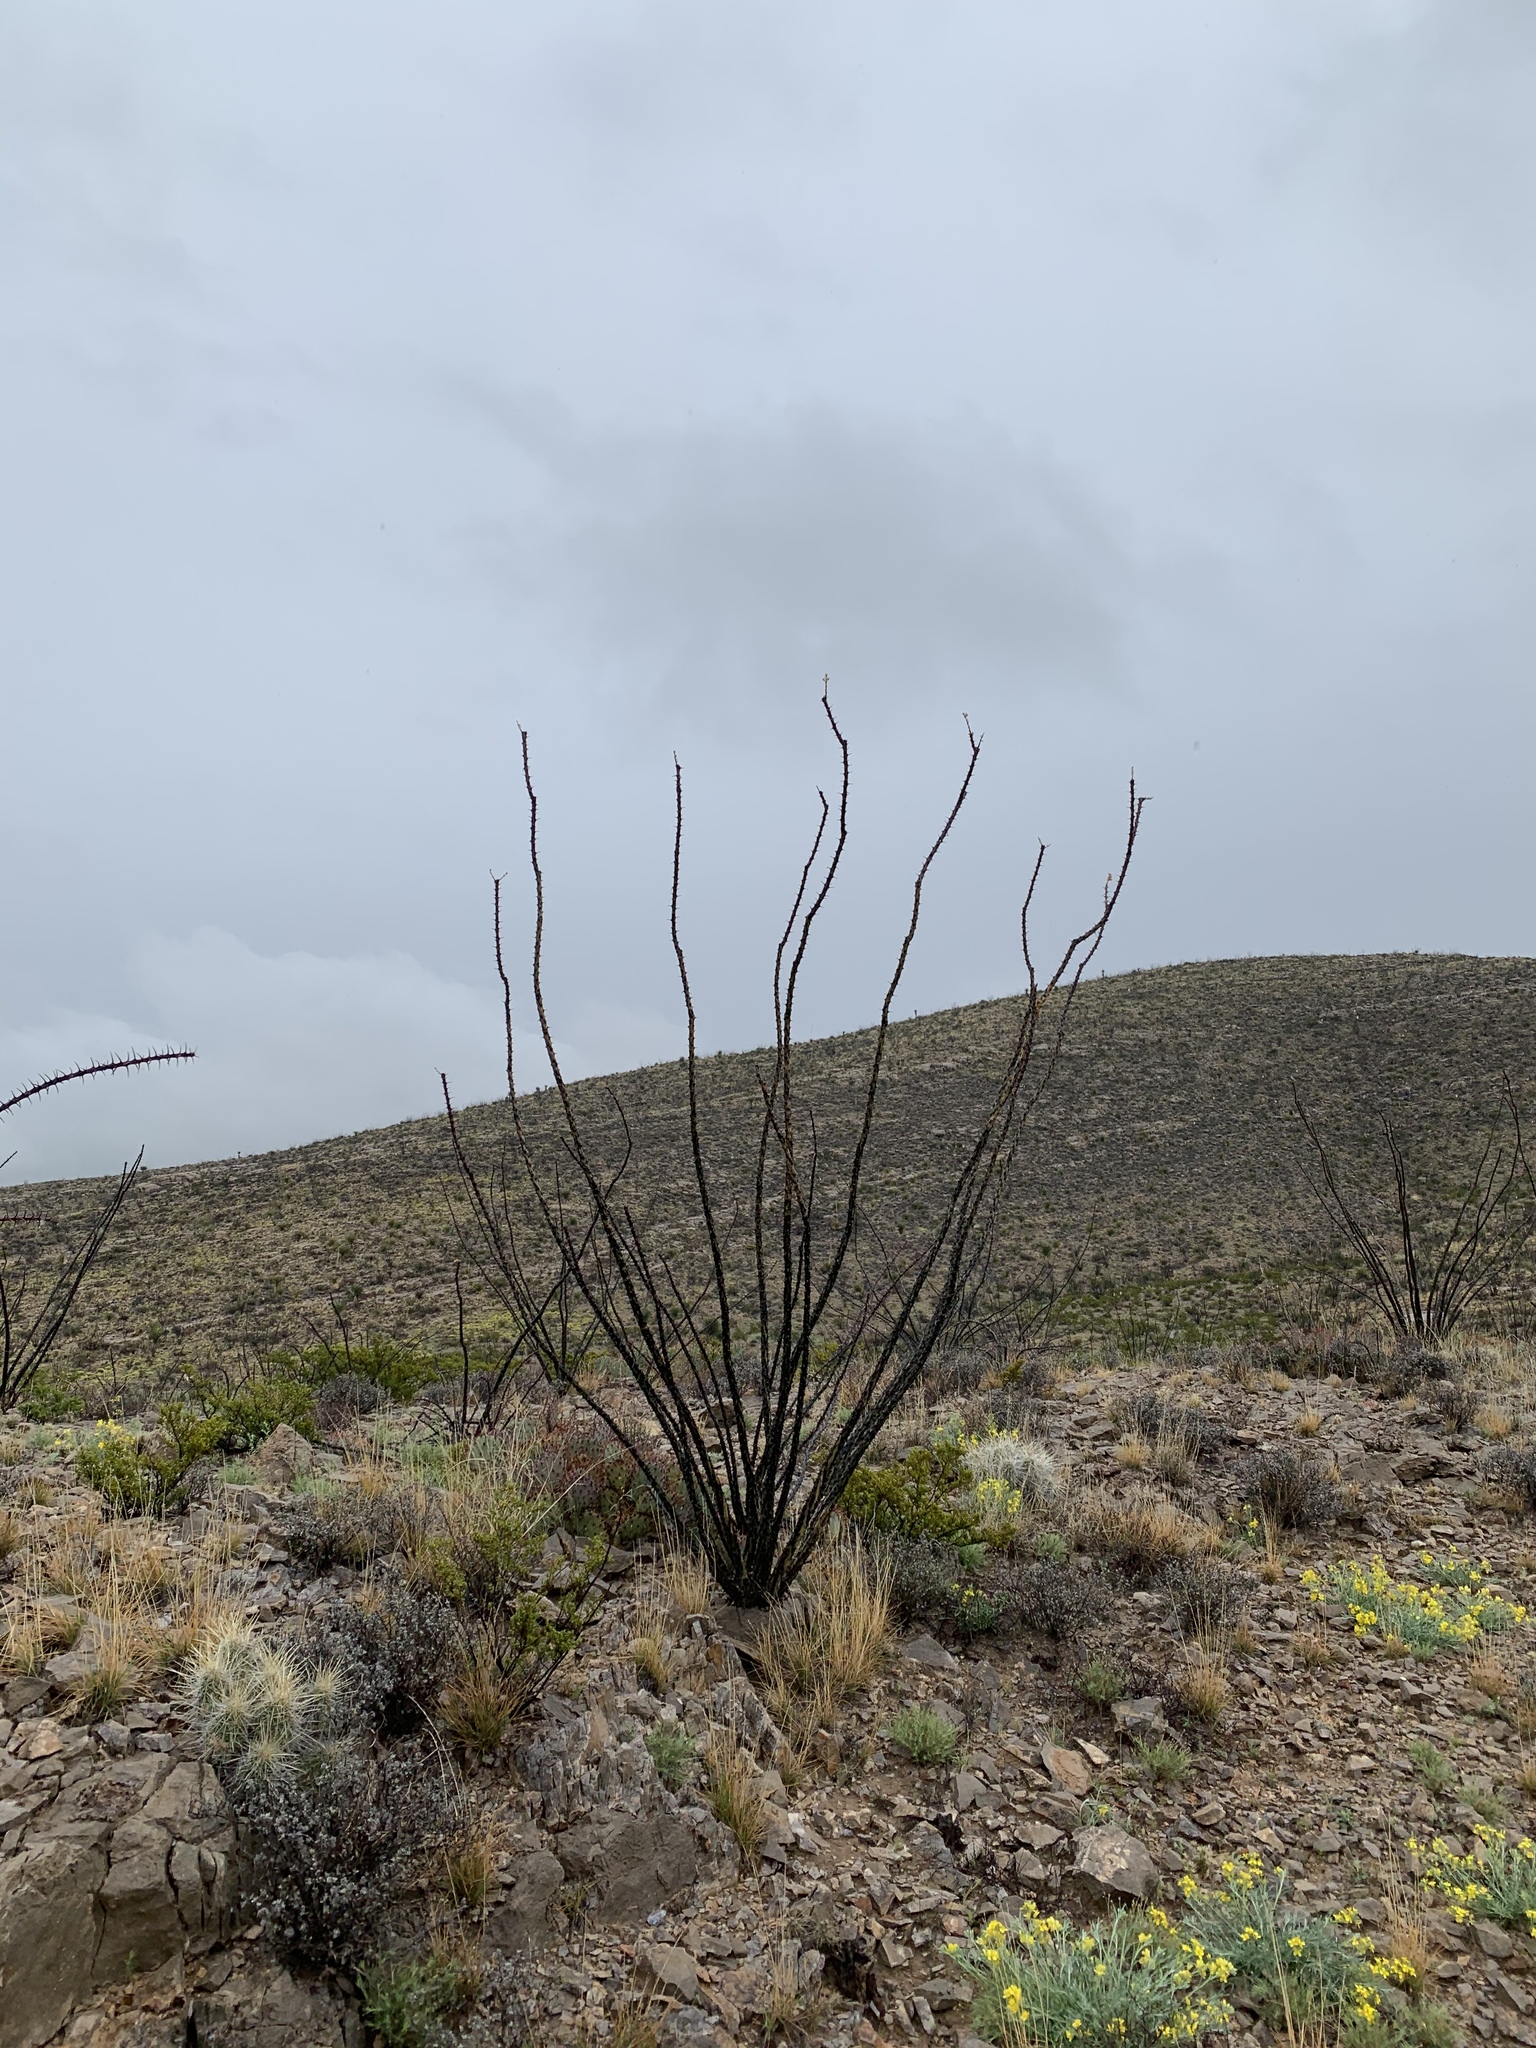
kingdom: Plantae
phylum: Tracheophyta
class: Magnoliopsida
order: Ericales
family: Fouquieriaceae
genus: Fouquieria
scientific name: Fouquieria splendens
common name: Vine-cactus
